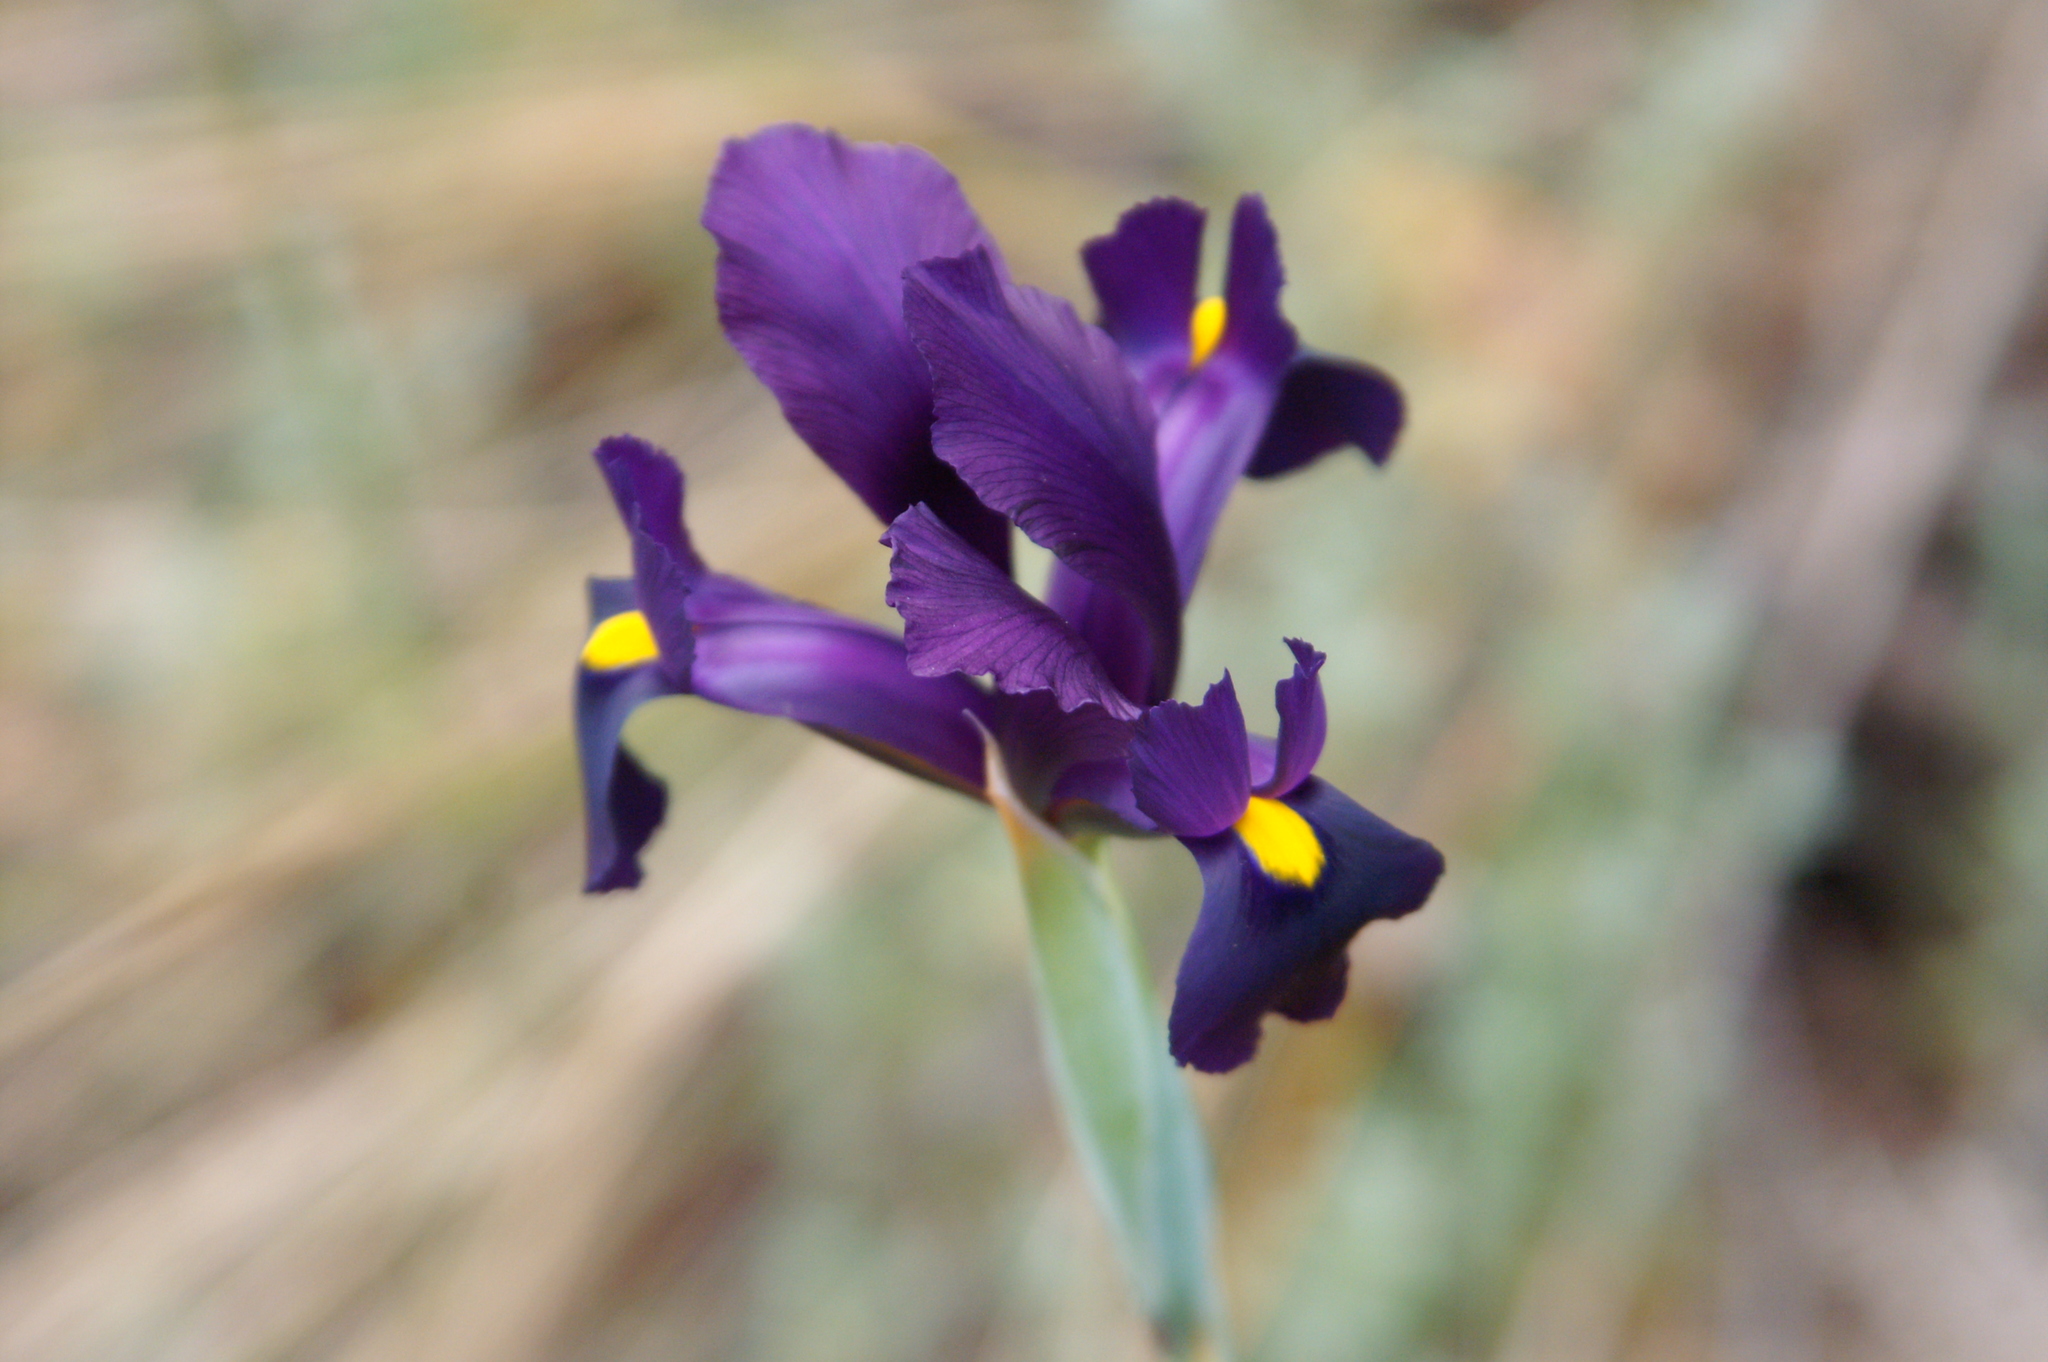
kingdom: Plantae
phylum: Tracheophyta
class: Liliopsida
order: Asparagales
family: Iridaceae
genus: Iris
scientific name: Iris filifolia
